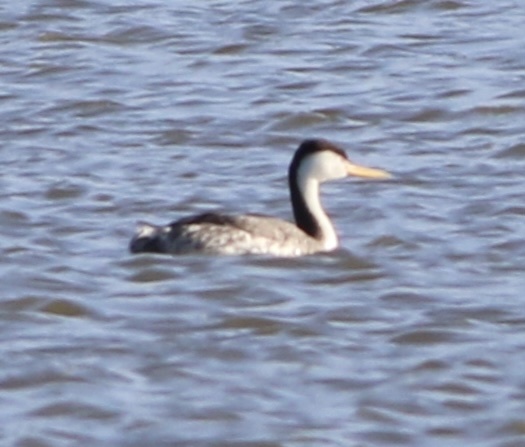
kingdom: Animalia
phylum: Chordata
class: Aves
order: Podicipediformes
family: Podicipedidae
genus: Aechmophorus
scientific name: Aechmophorus clarkii
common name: Clark's grebe
